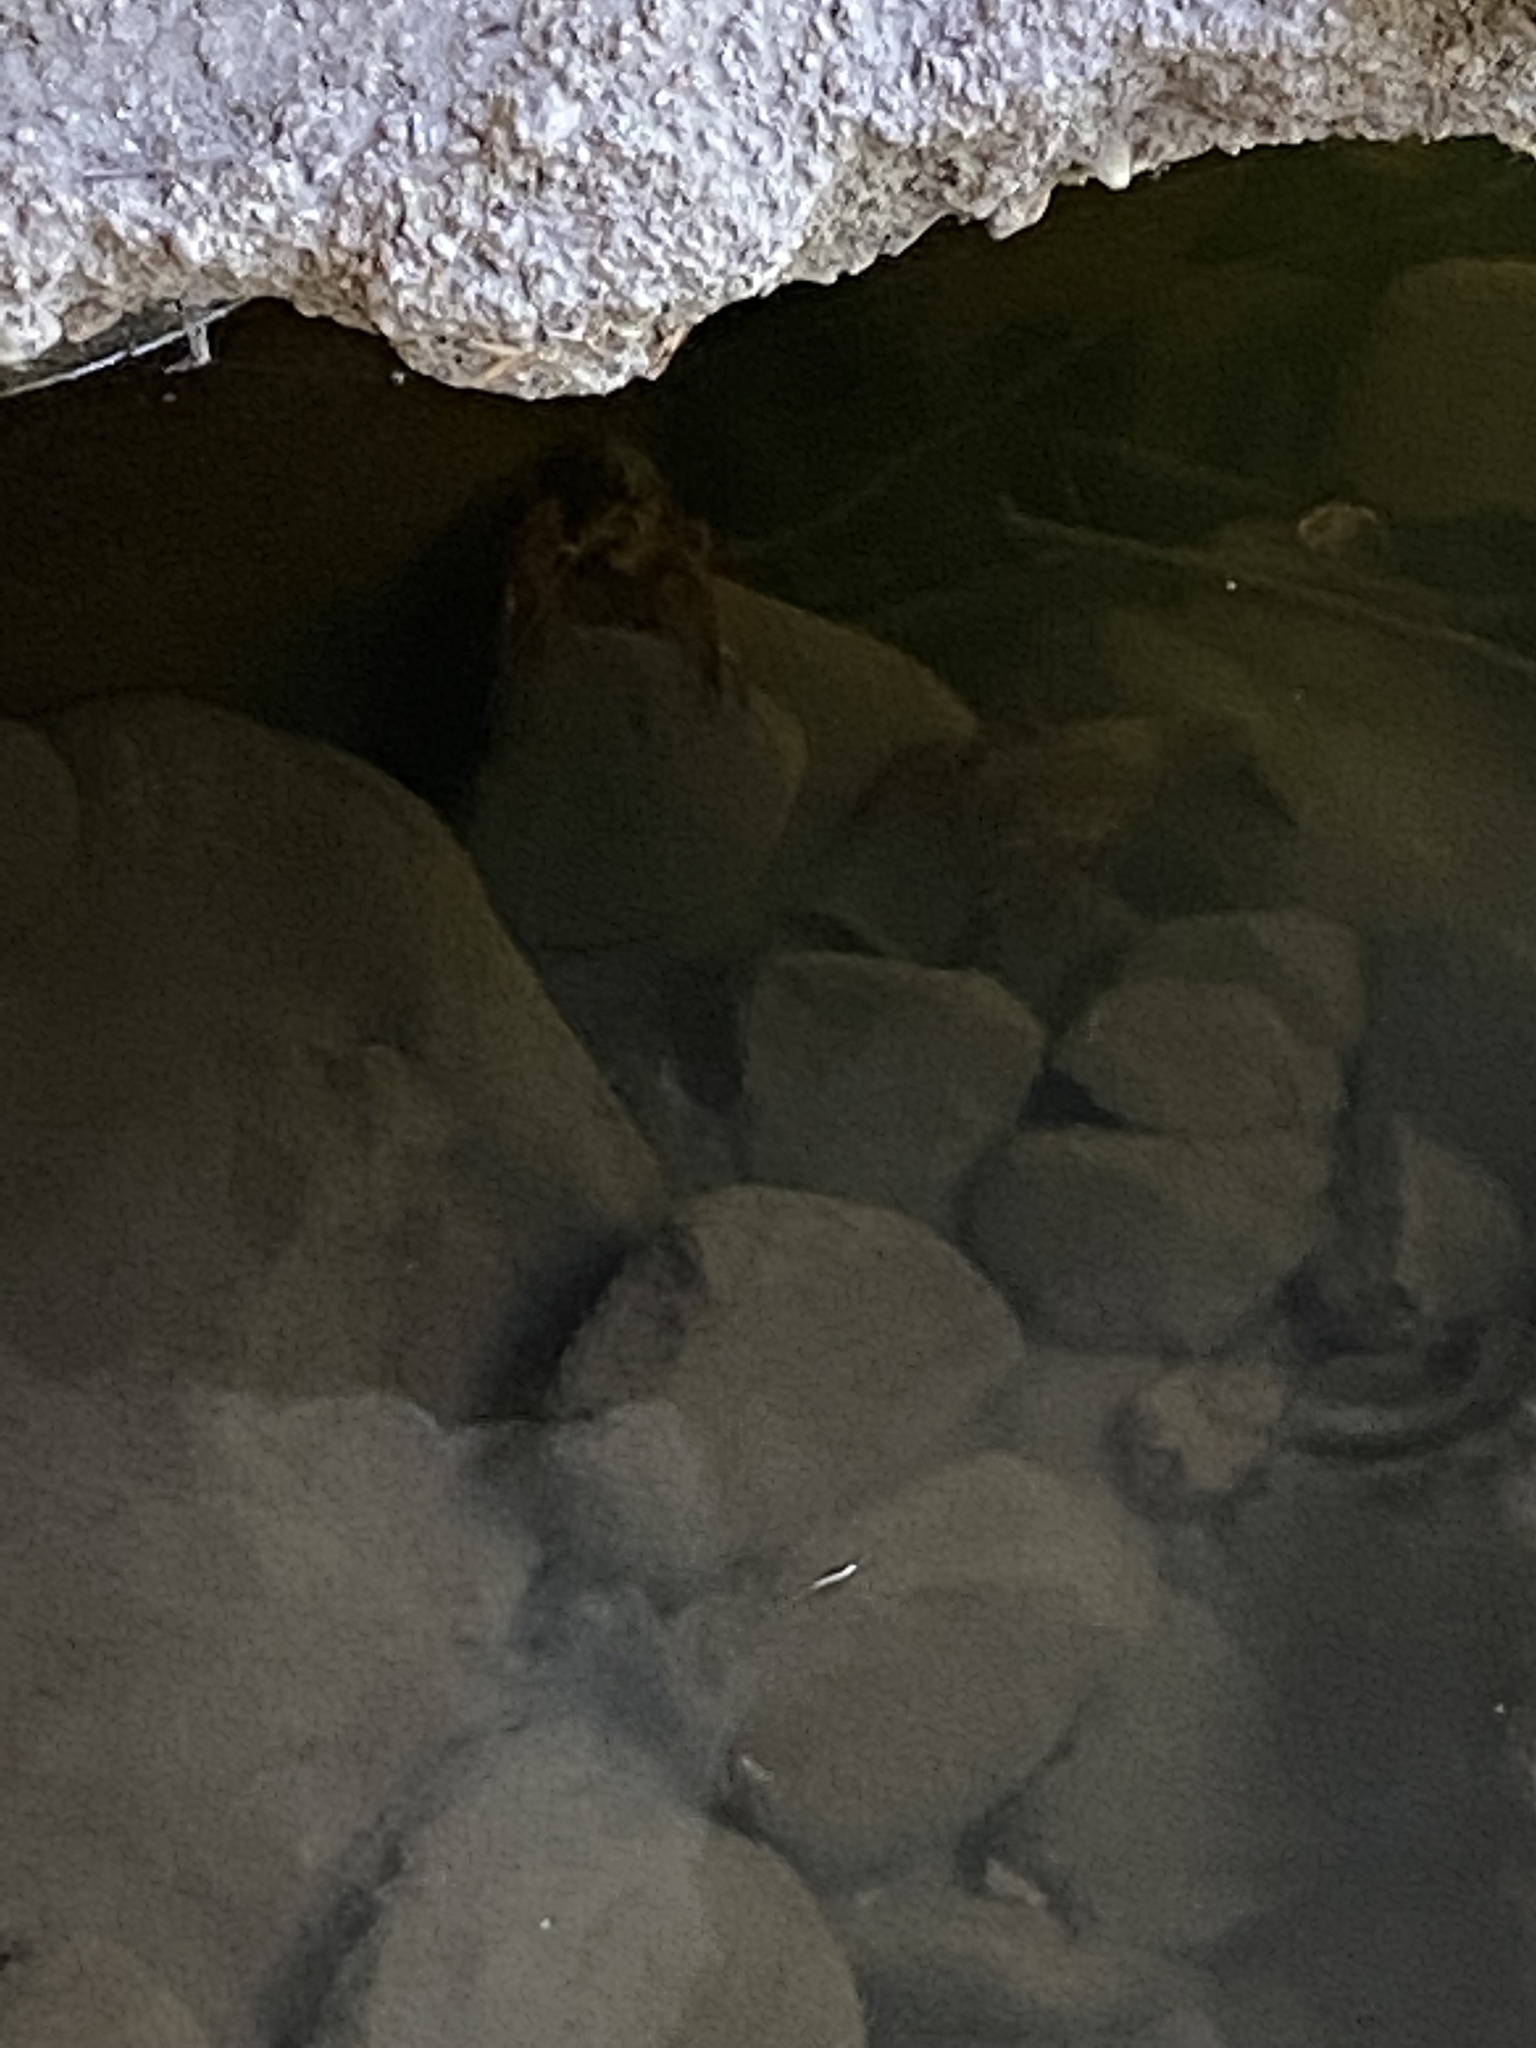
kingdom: Animalia
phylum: Arthropoda
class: Malacostraca
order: Decapoda
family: Cambaridae
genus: Procambarus
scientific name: Procambarus clarkii
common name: Red swamp crayfish
